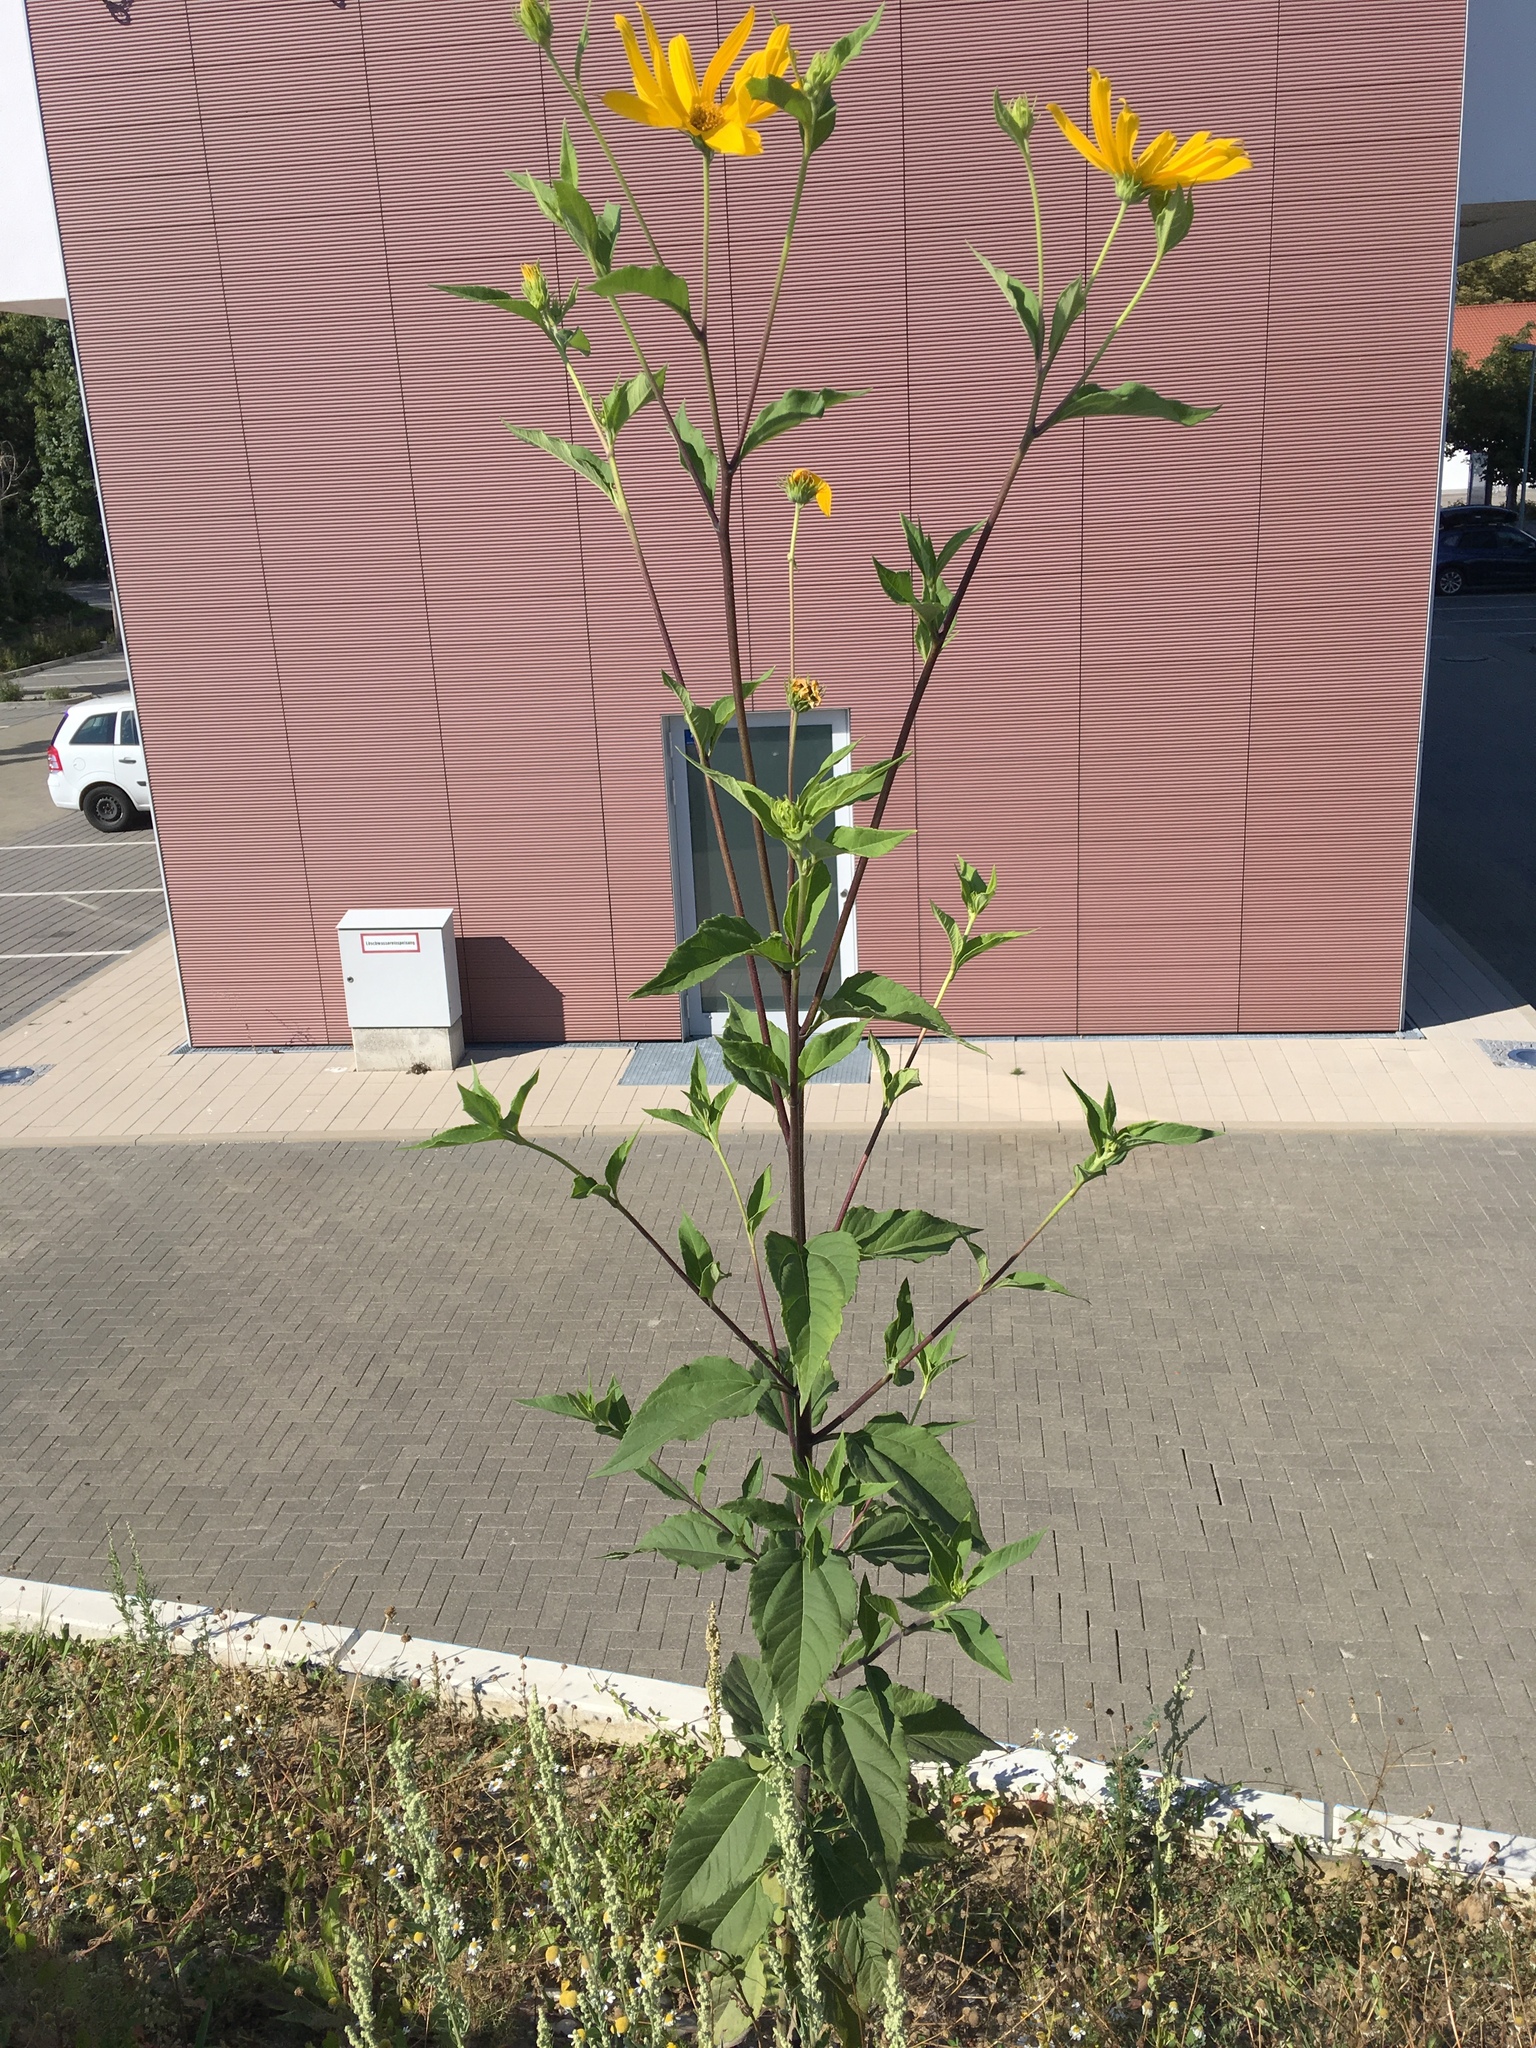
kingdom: Plantae
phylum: Tracheophyta
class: Magnoliopsida
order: Asterales
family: Asteraceae
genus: Helianthus
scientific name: Helianthus tuberosus
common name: Jerusalem artichoke
